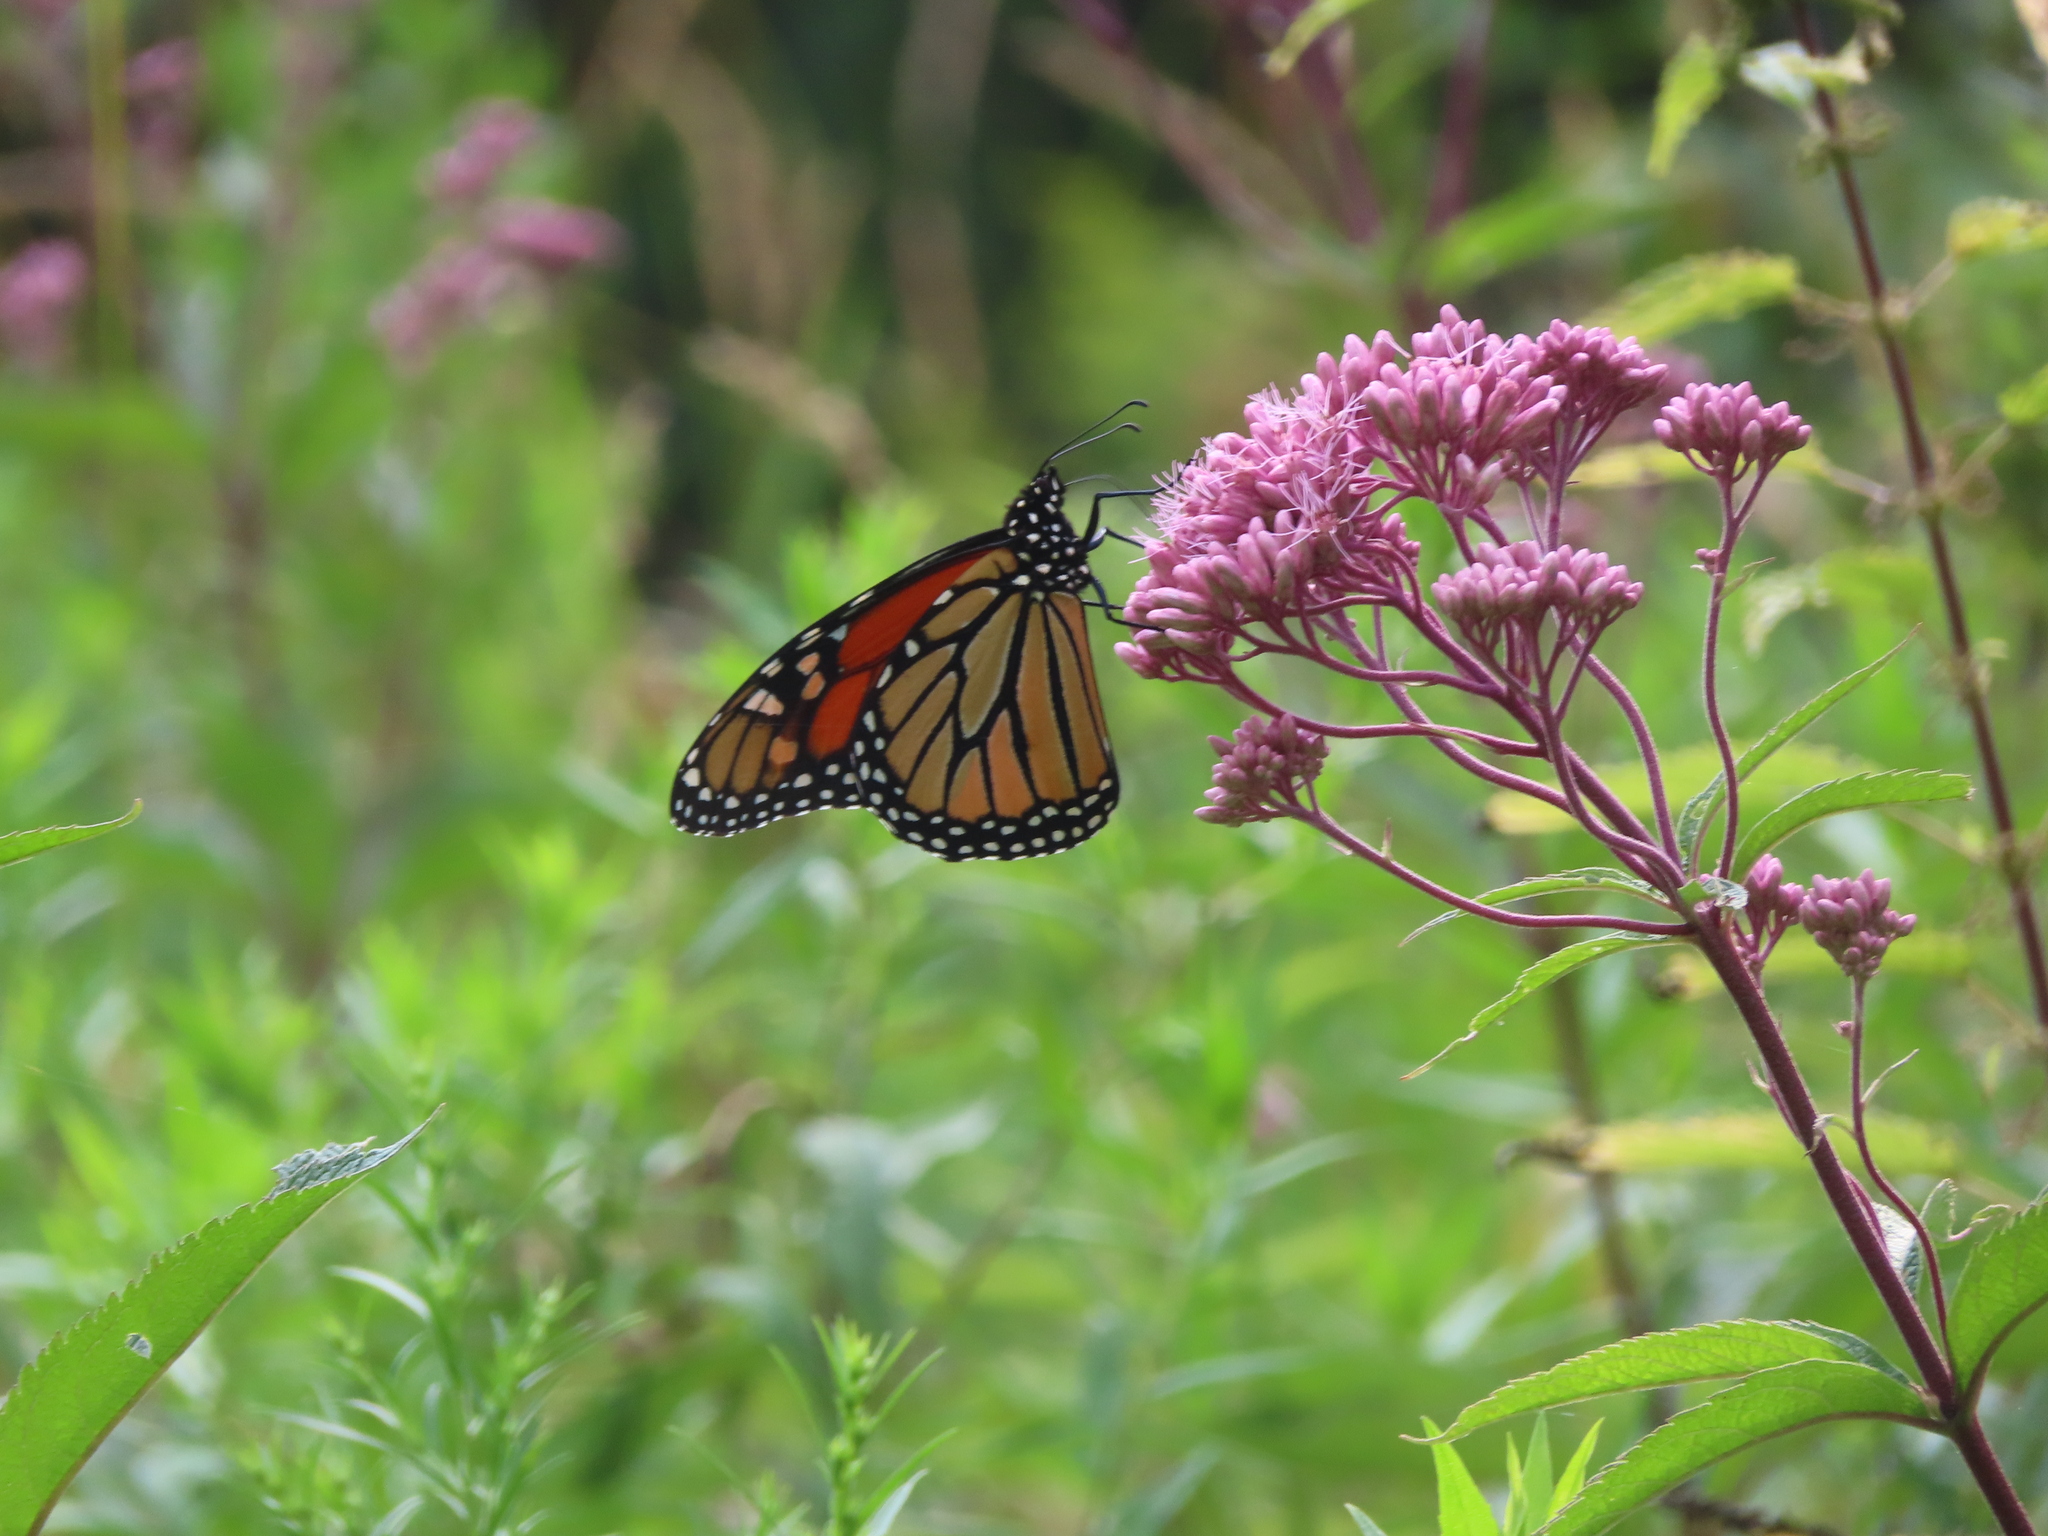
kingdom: Animalia
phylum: Arthropoda
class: Insecta
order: Lepidoptera
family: Nymphalidae
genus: Danaus
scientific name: Danaus plexippus
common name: Monarch
